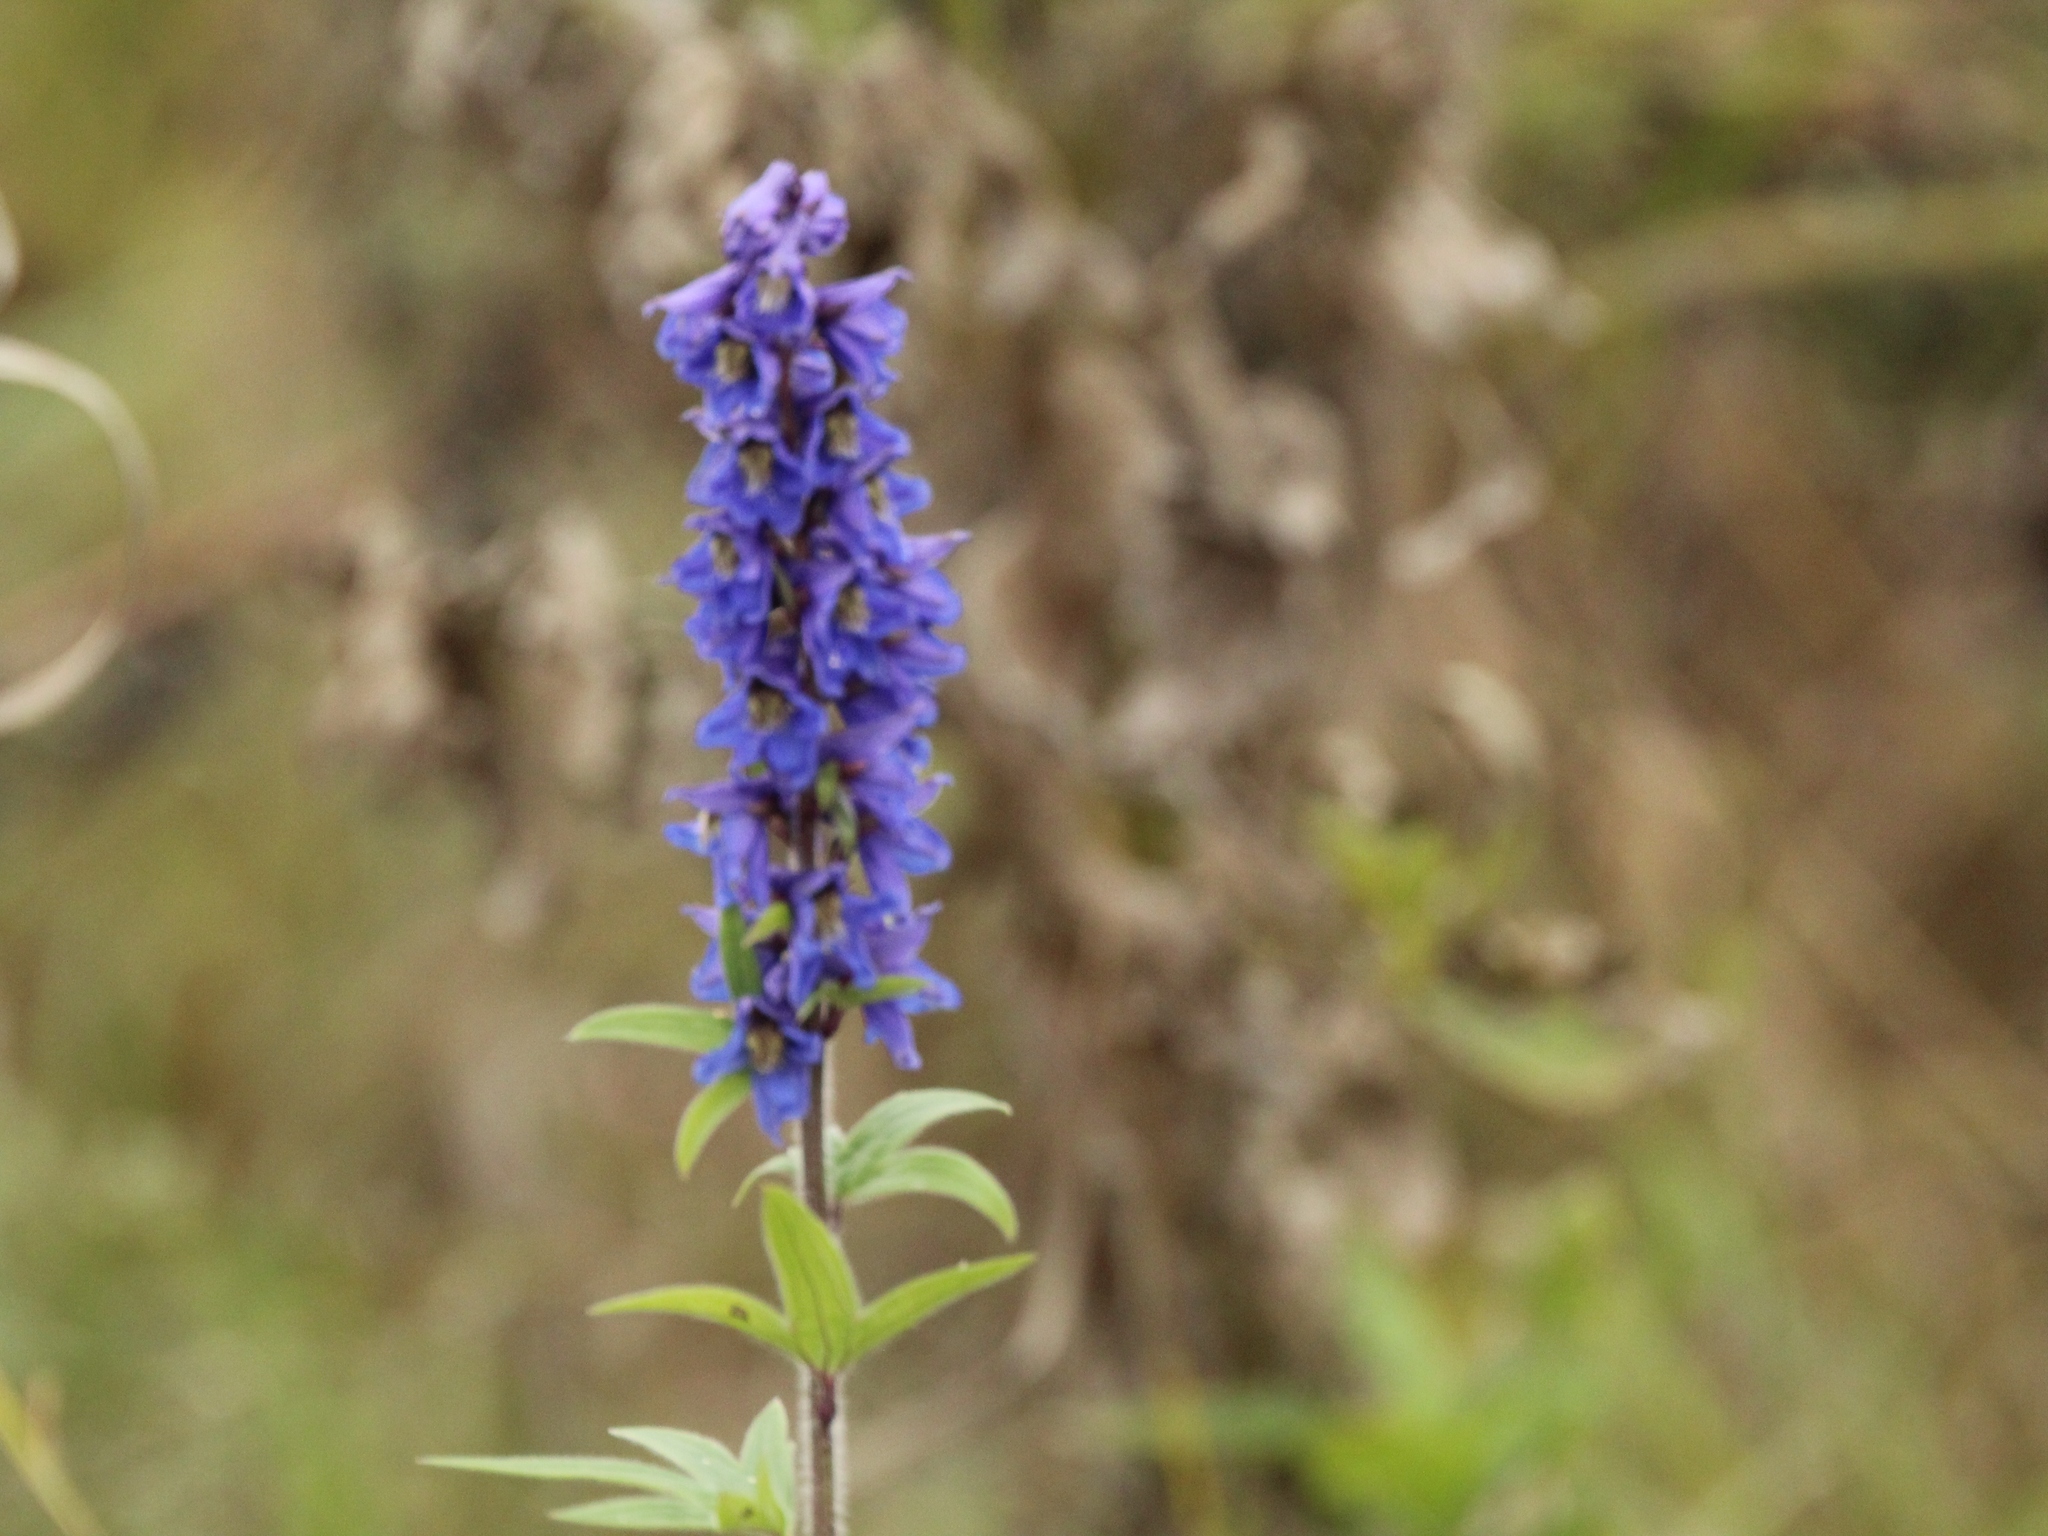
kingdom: Plantae
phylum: Tracheophyta
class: Magnoliopsida
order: Ranunculales
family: Ranunculaceae
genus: Delphinium
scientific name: Delphinium retropilosum
